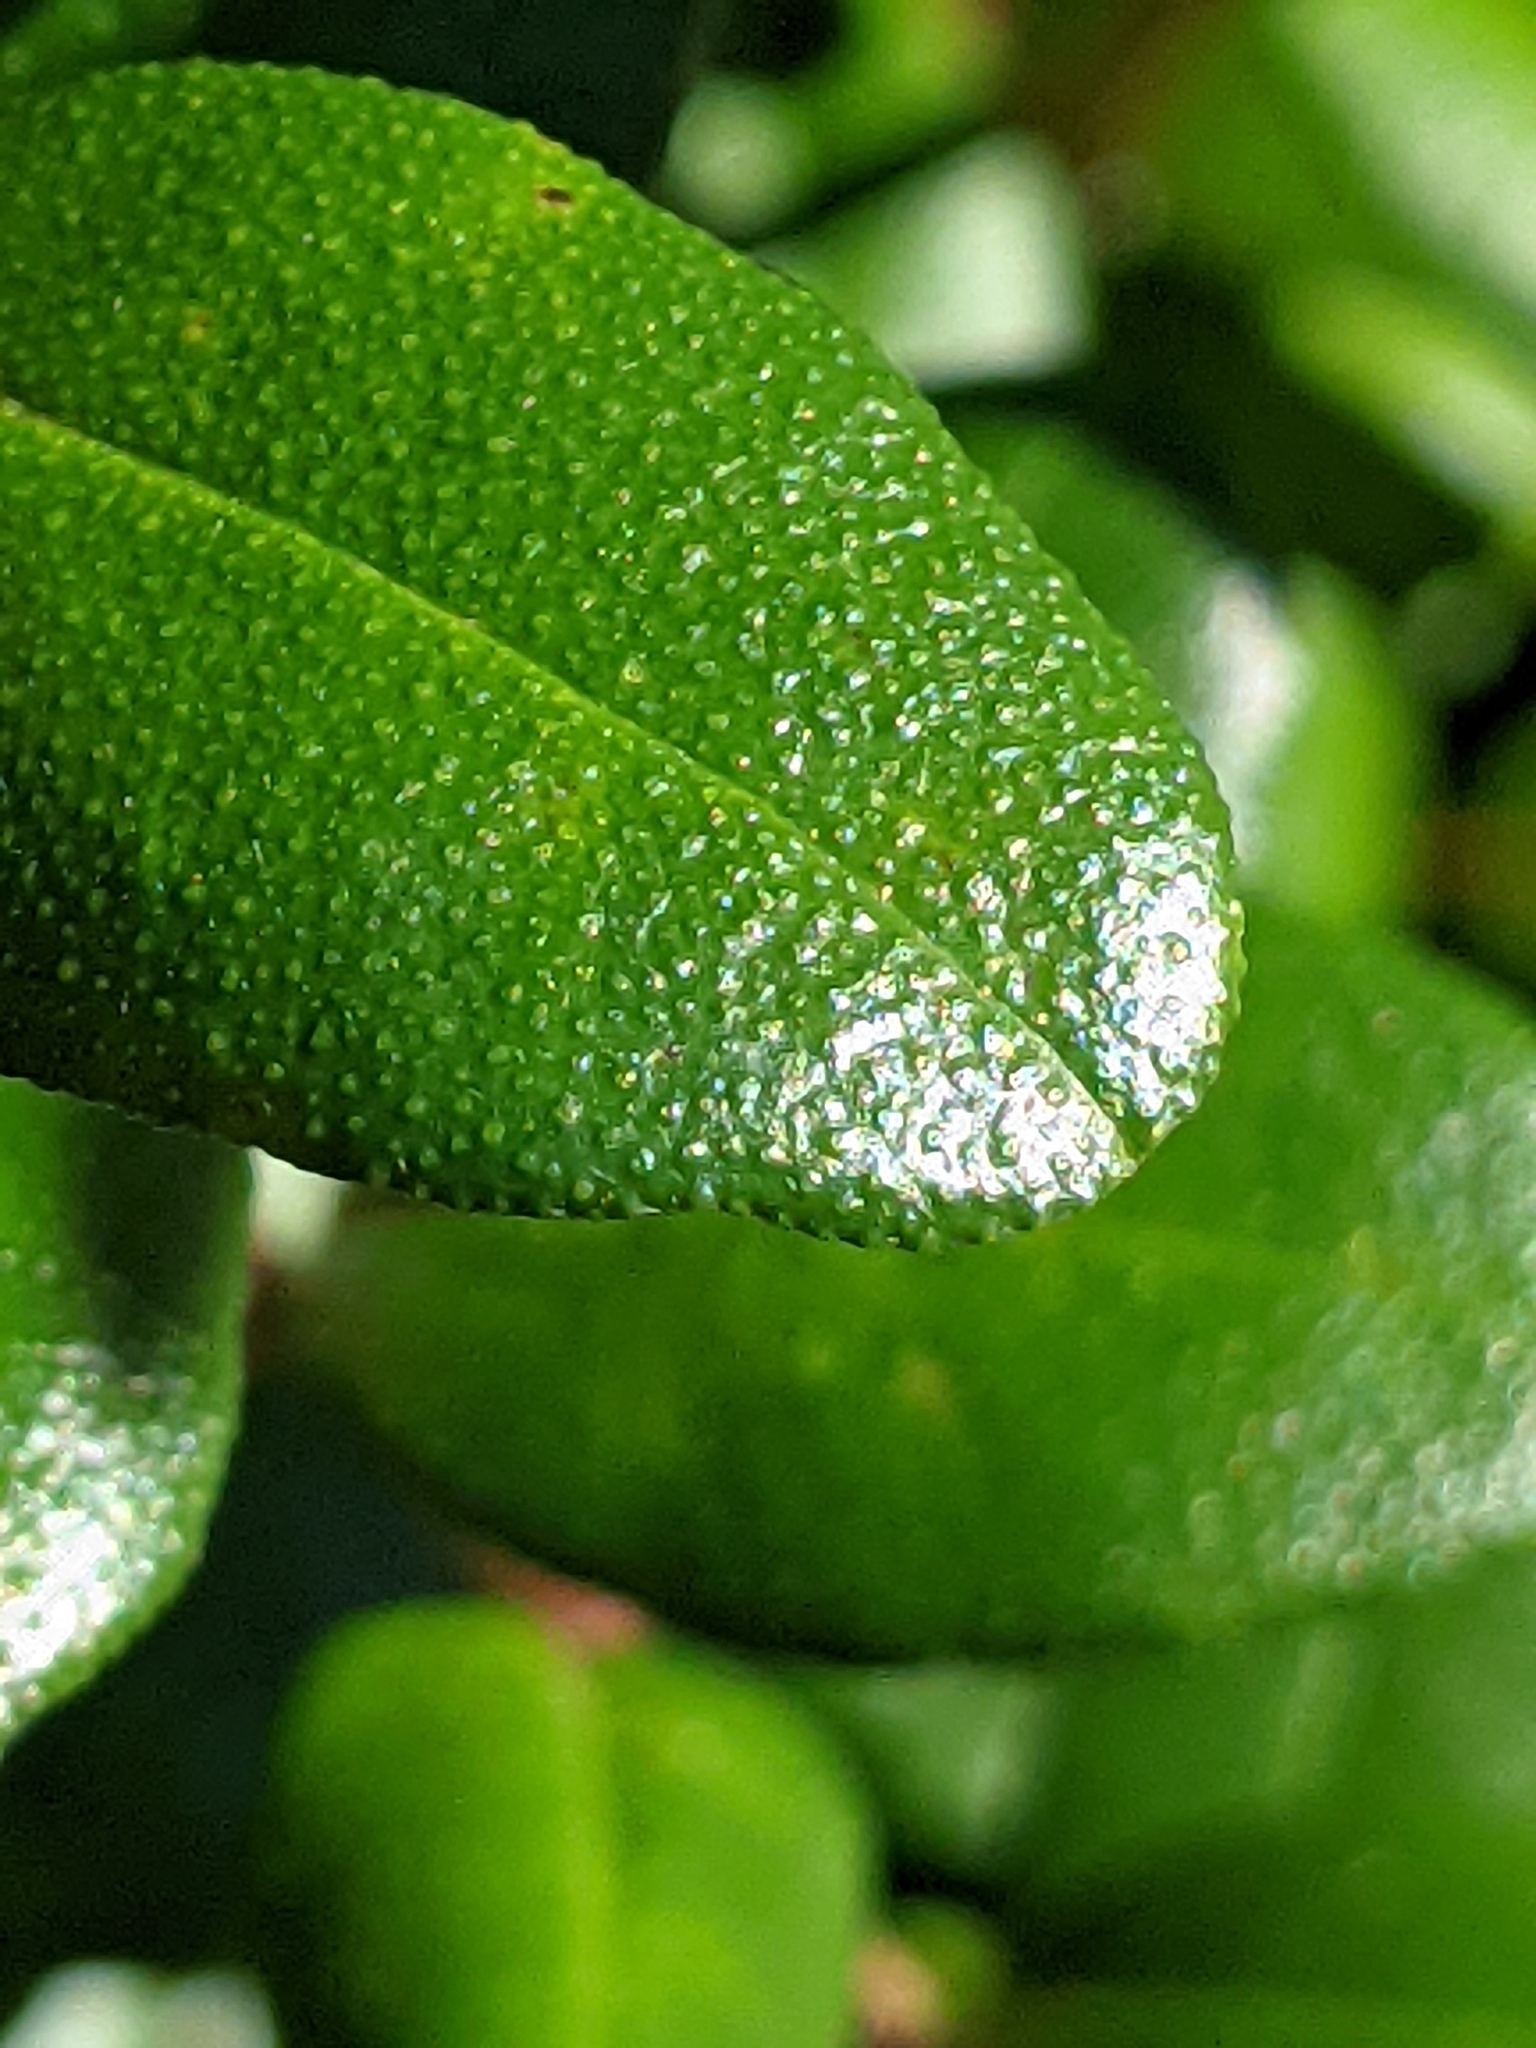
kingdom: Plantae
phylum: Tracheophyta
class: Magnoliopsida
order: Myrtales
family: Myrtaceae
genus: Myrcianthes
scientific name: Myrcianthes fragrans
